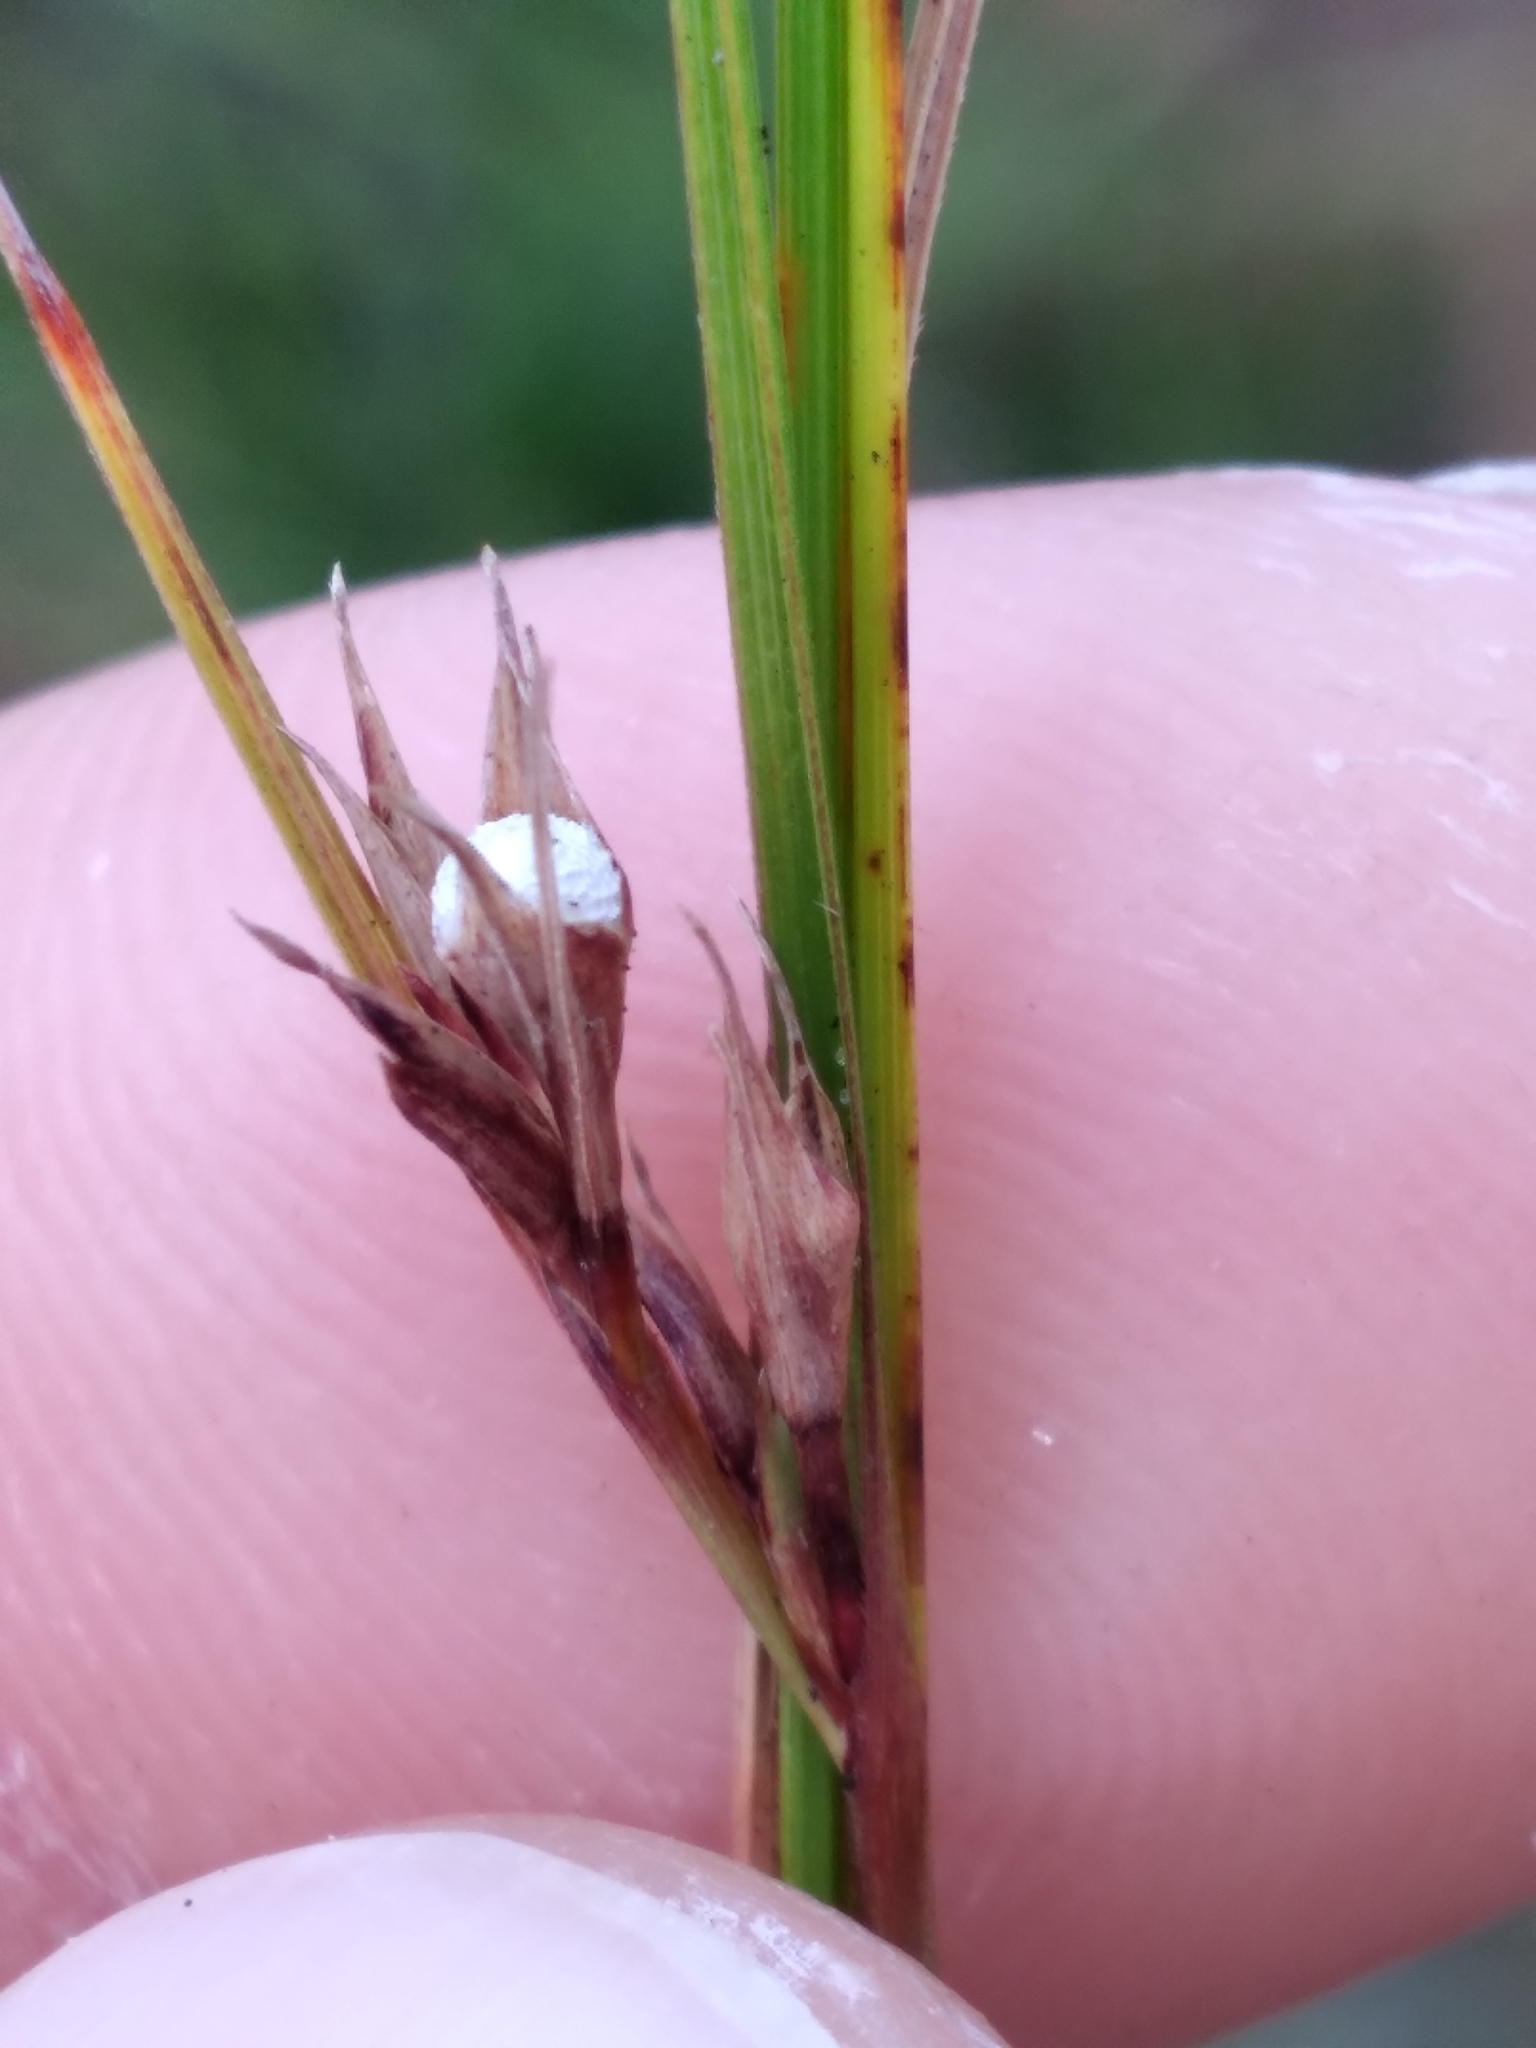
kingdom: Plantae
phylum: Tracheophyta
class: Liliopsida
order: Poales
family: Cyperaceae
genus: Scleria
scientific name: Scleria ciliata
